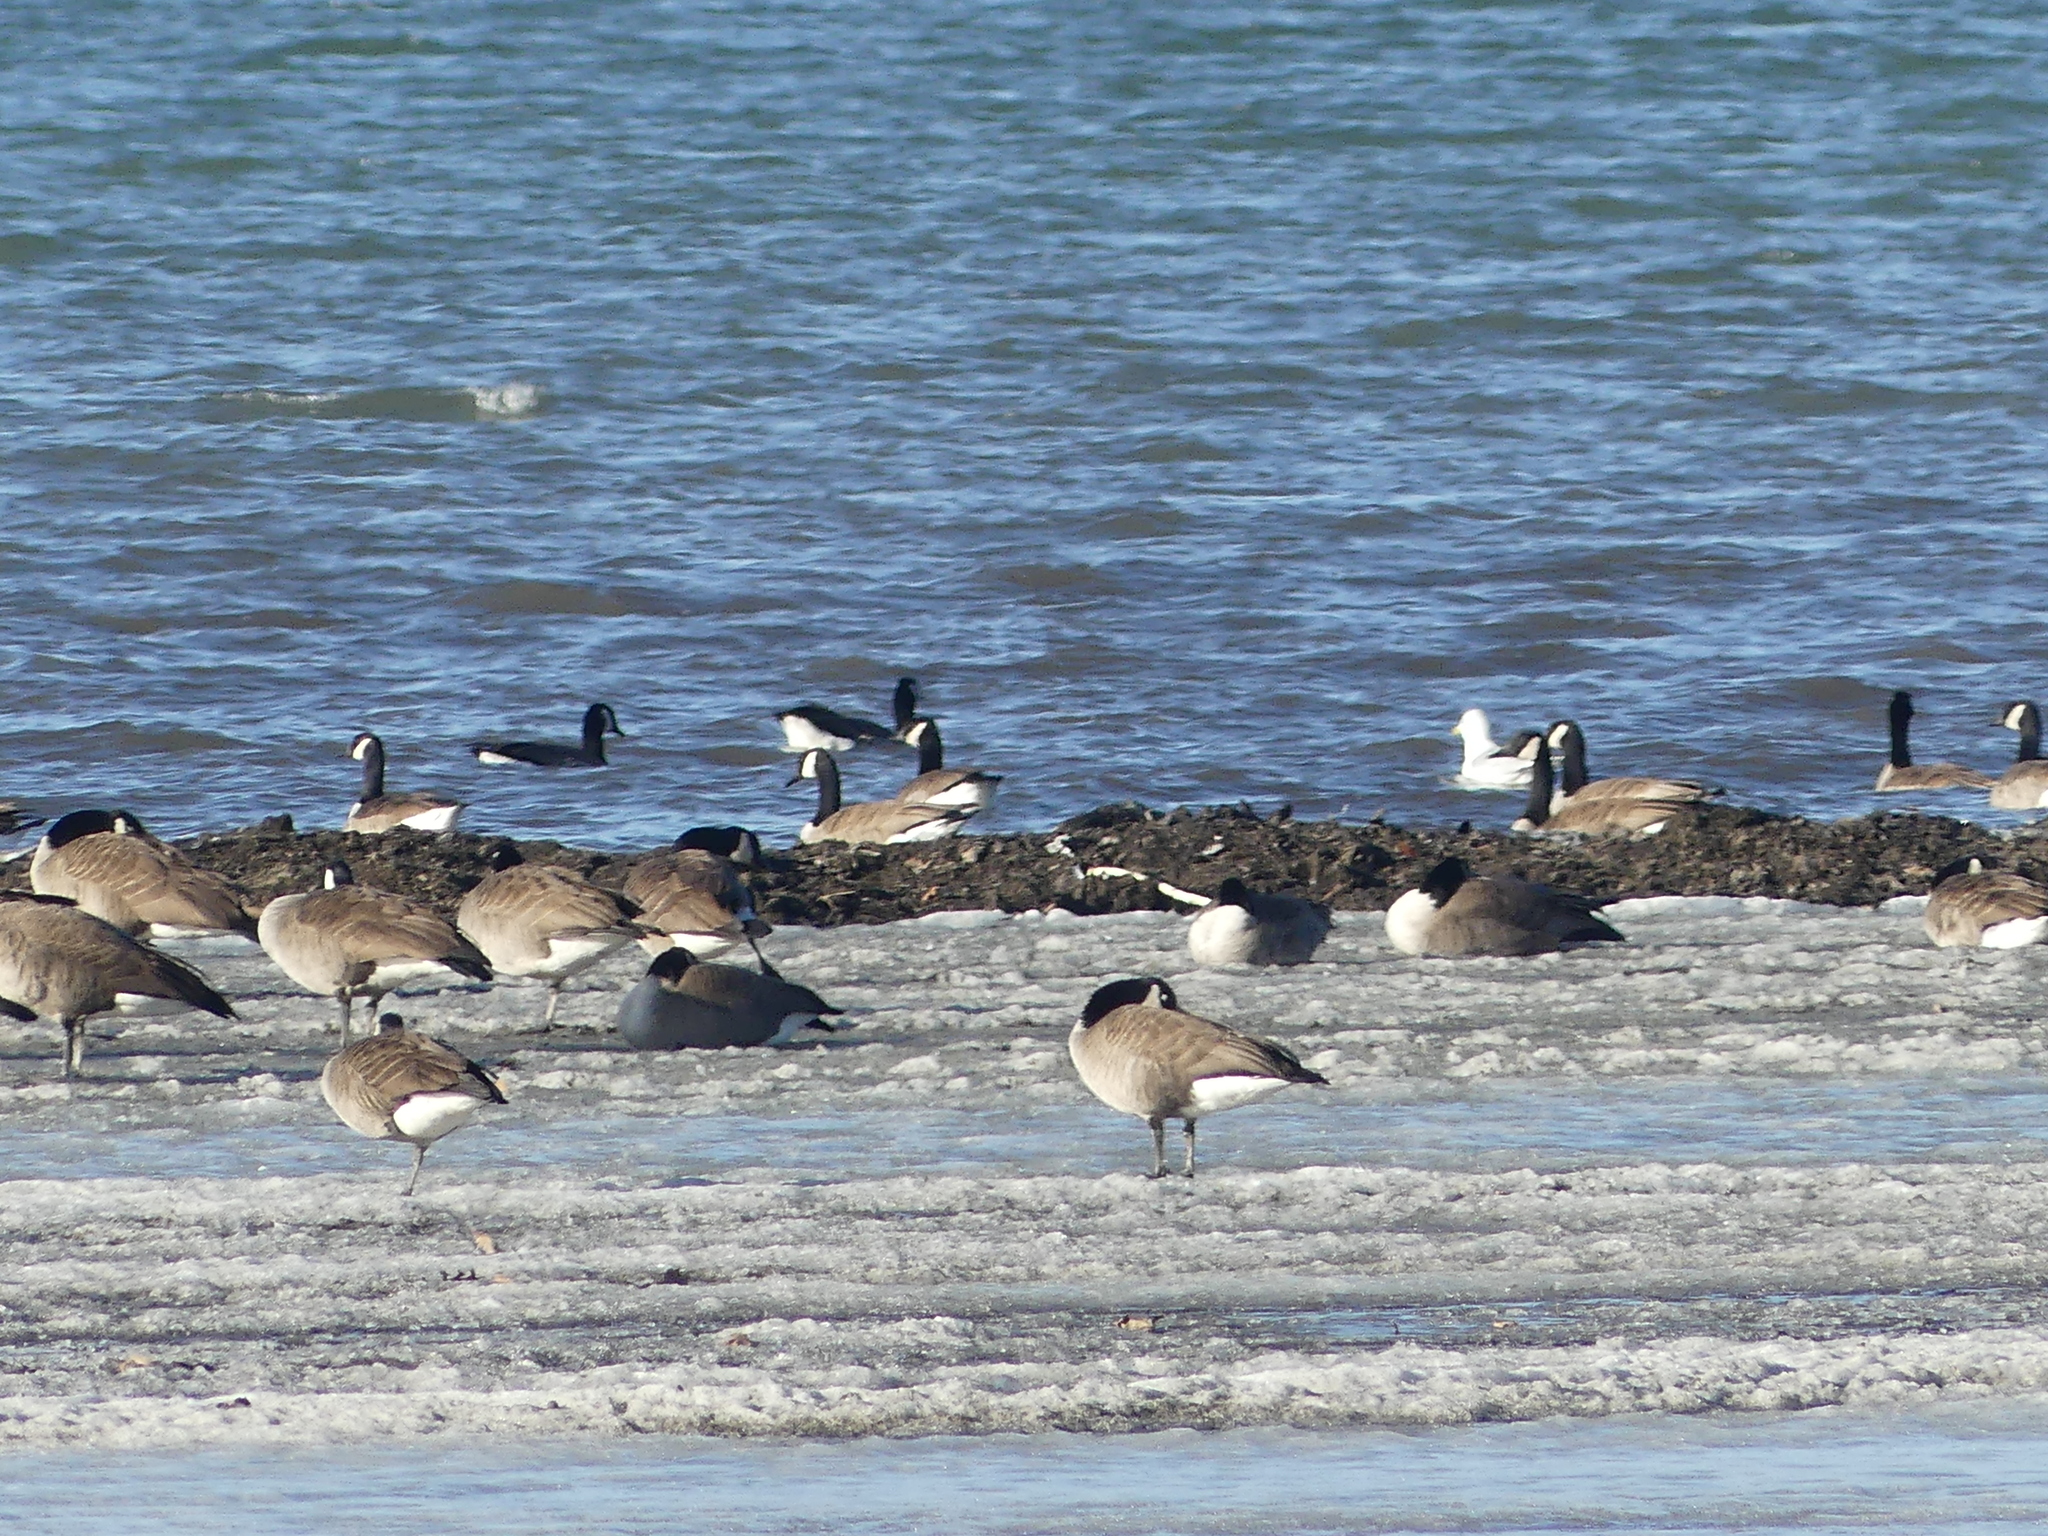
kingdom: Animalia
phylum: Chordata
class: Aves
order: Anseriformes
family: Anatidae
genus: Branta
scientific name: Branta canadensis
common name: Canada goose
